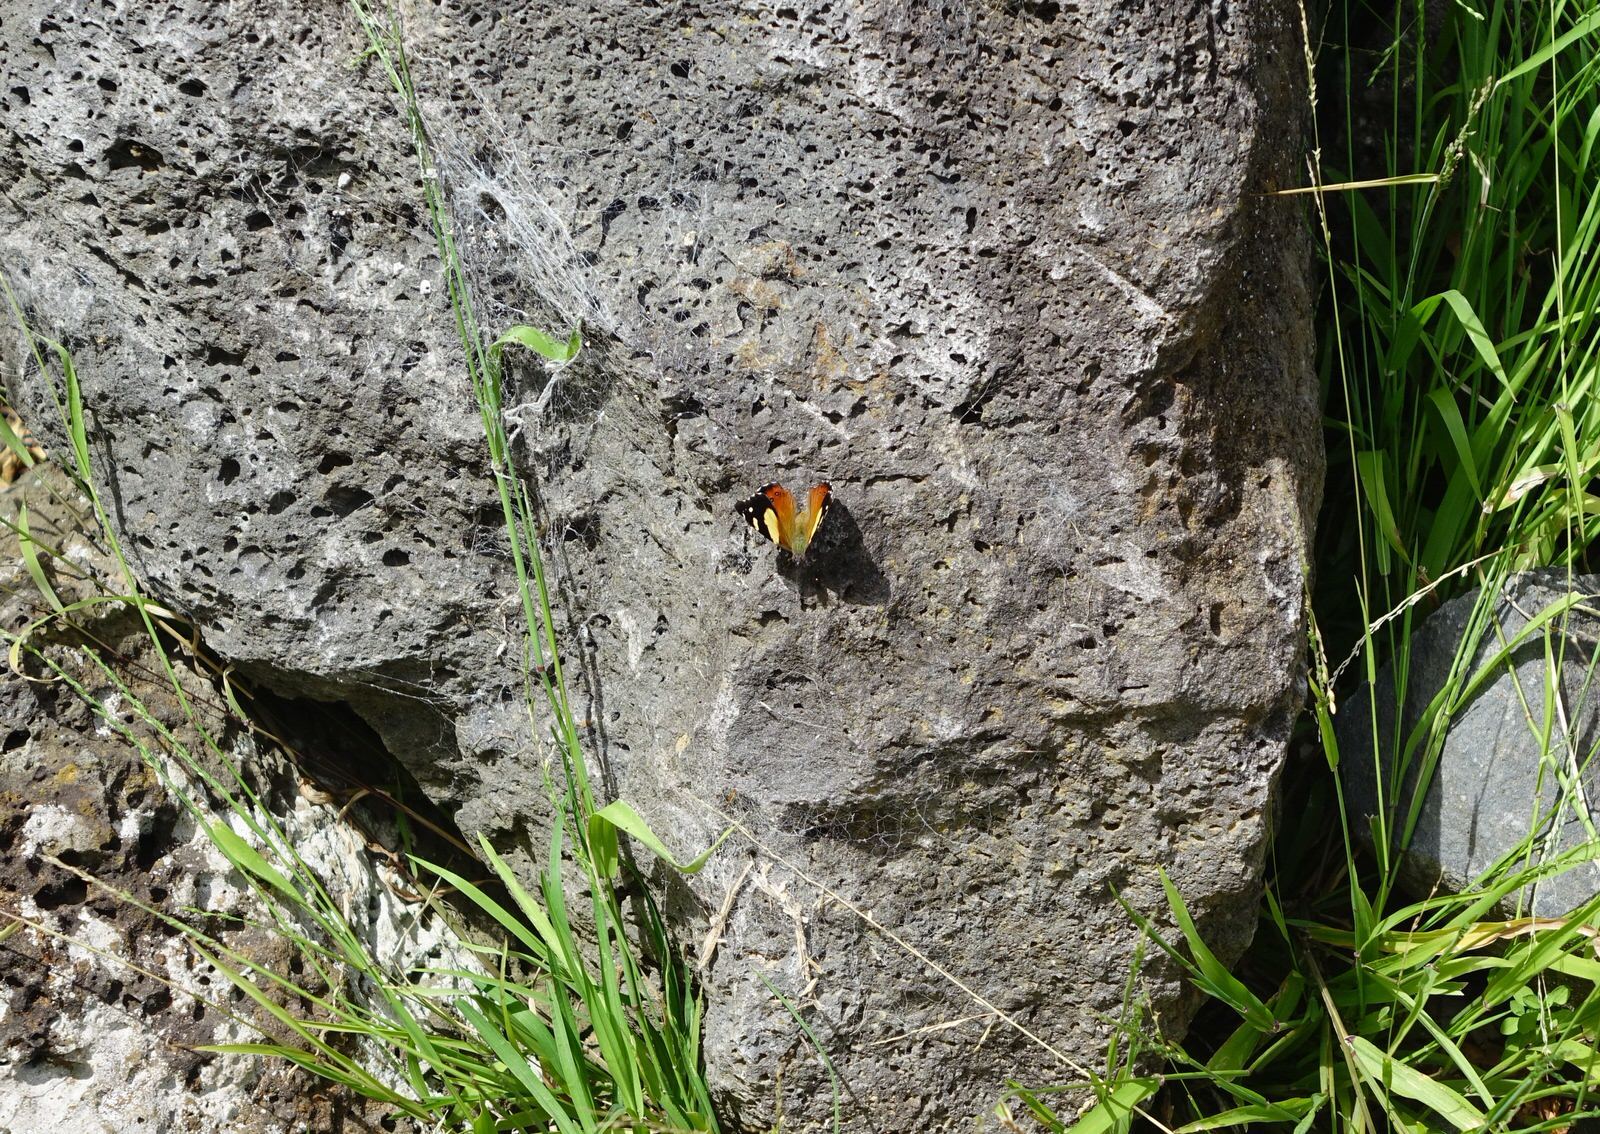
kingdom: Animalia
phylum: Arthropoda
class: Insecta
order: Lepidoptera
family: Nymphalidae
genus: Vanessa
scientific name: Vanessa itea
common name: Yellow admiral
